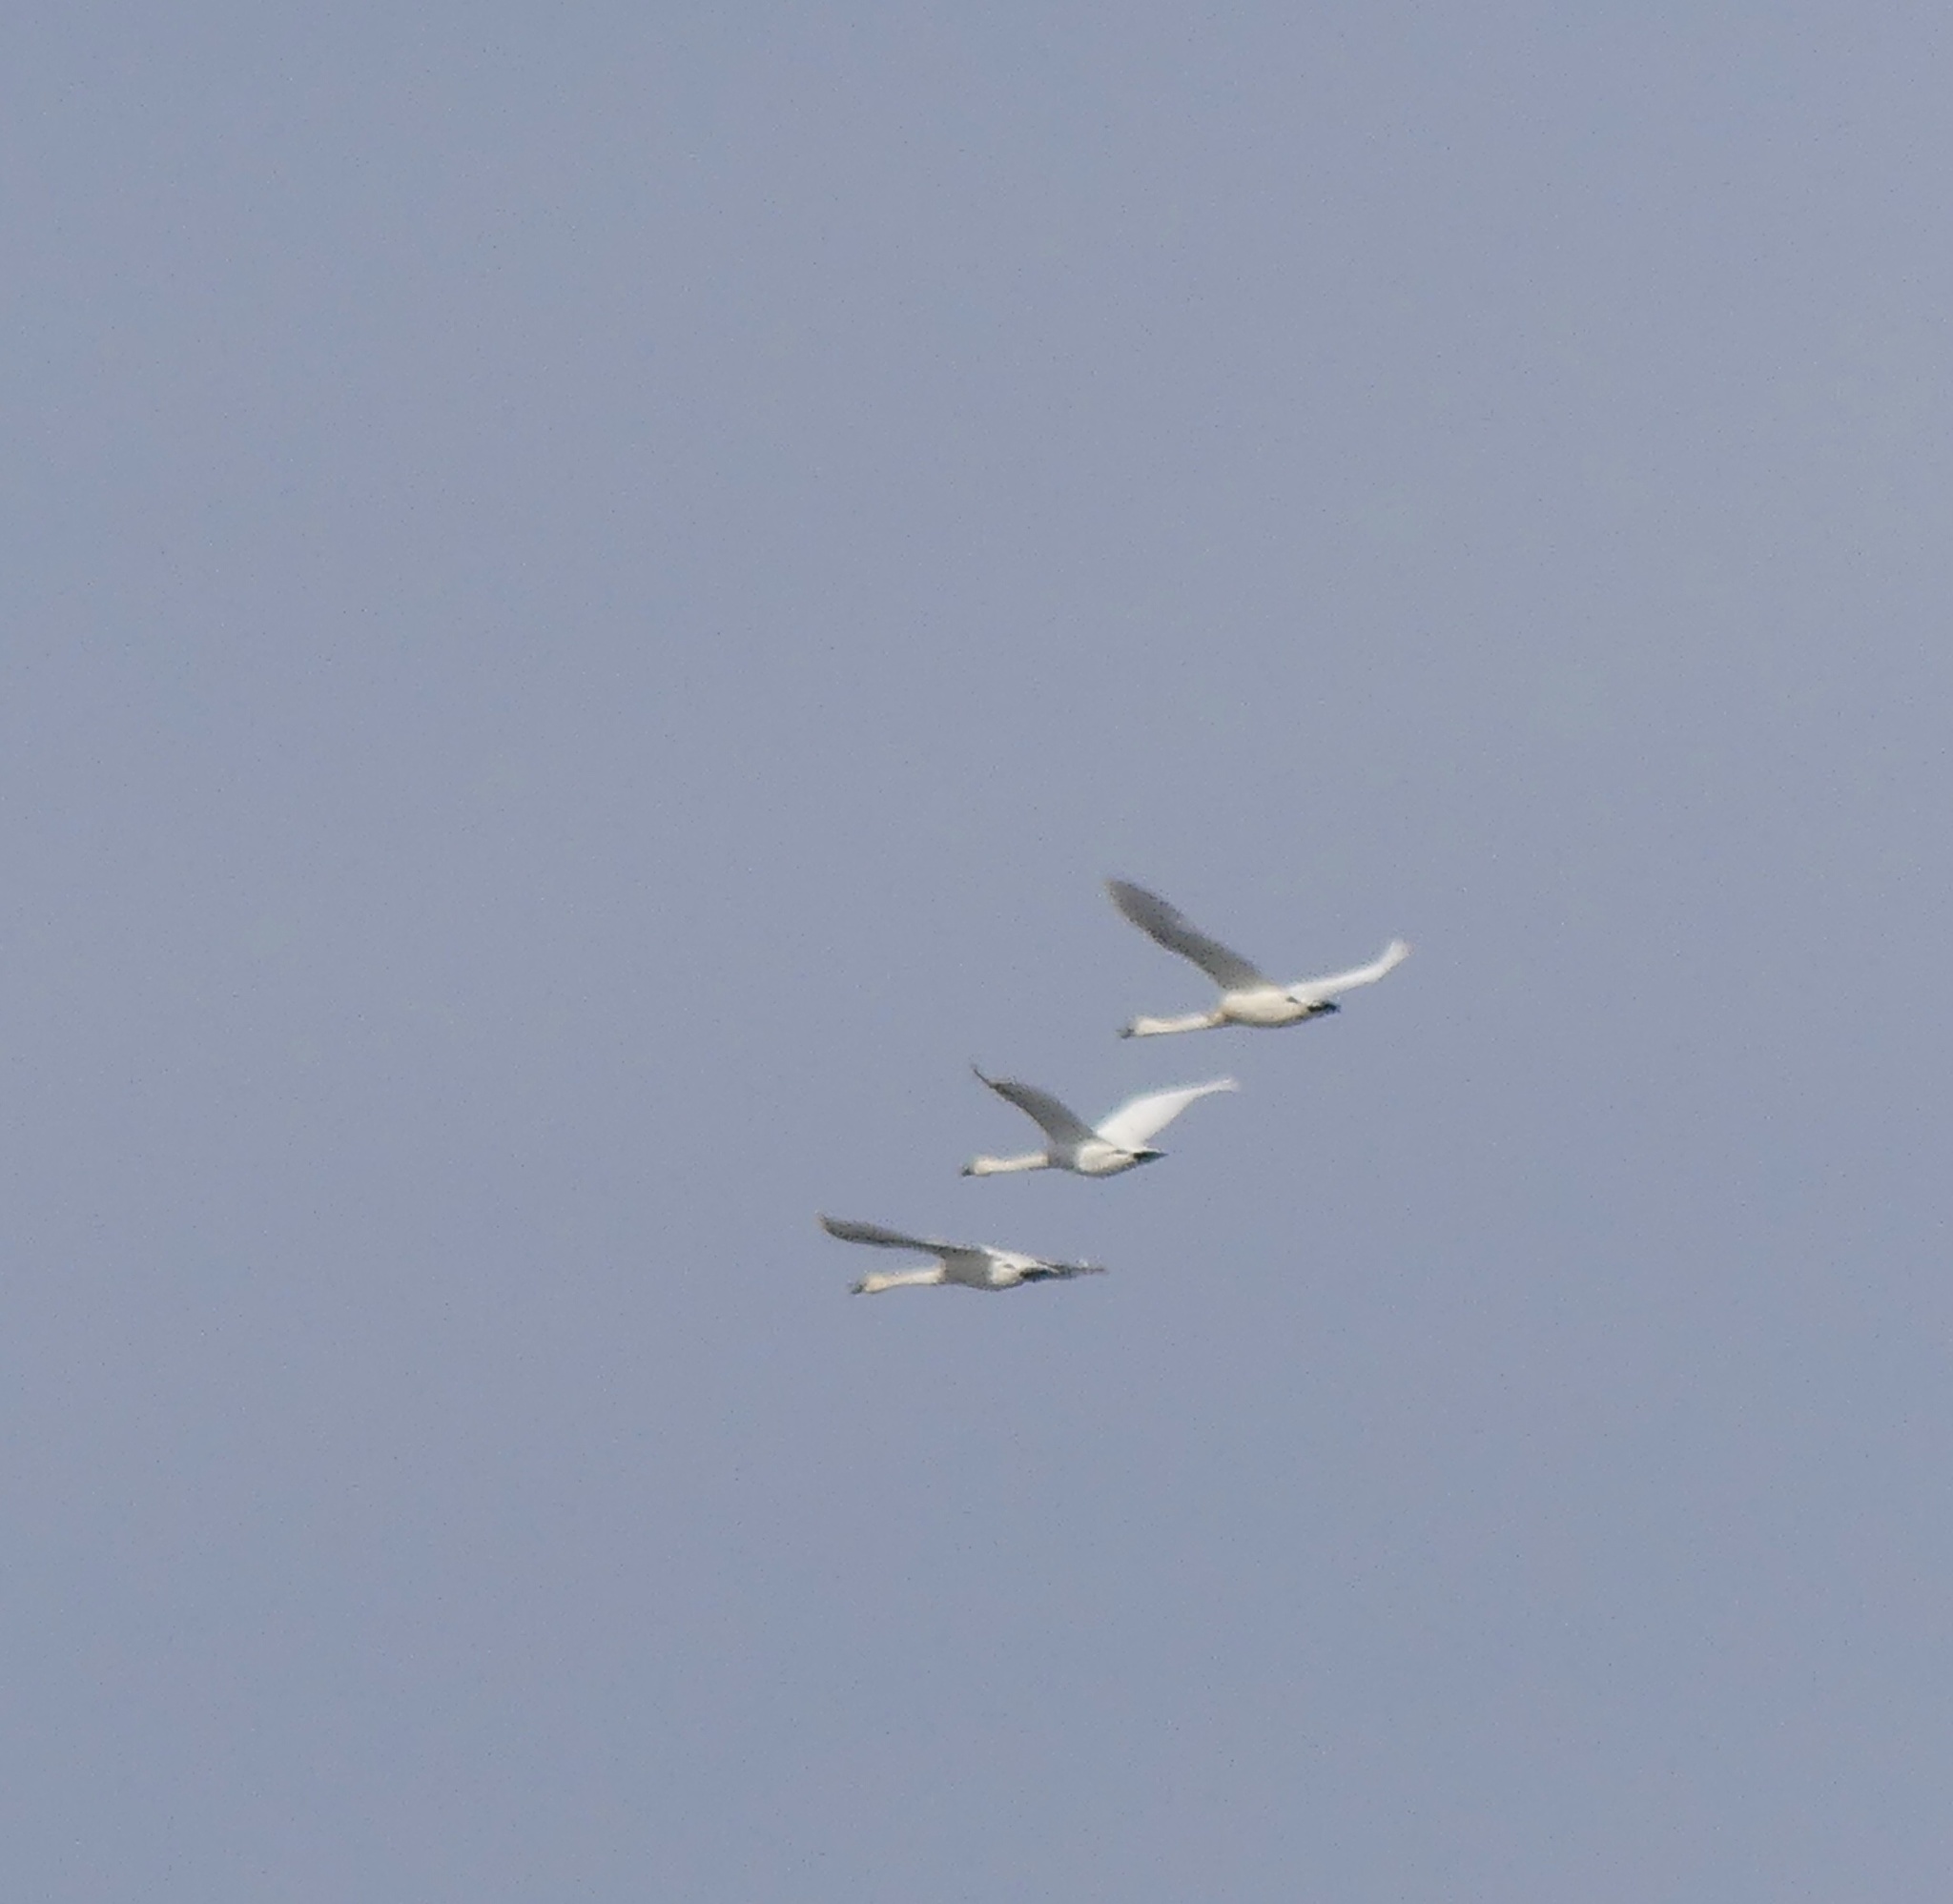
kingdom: Animalia
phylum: Chordata
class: Aves
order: Anseriformes
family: Anatidae
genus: Cygnus
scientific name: Cygnus columbianus
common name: Tundra swan
